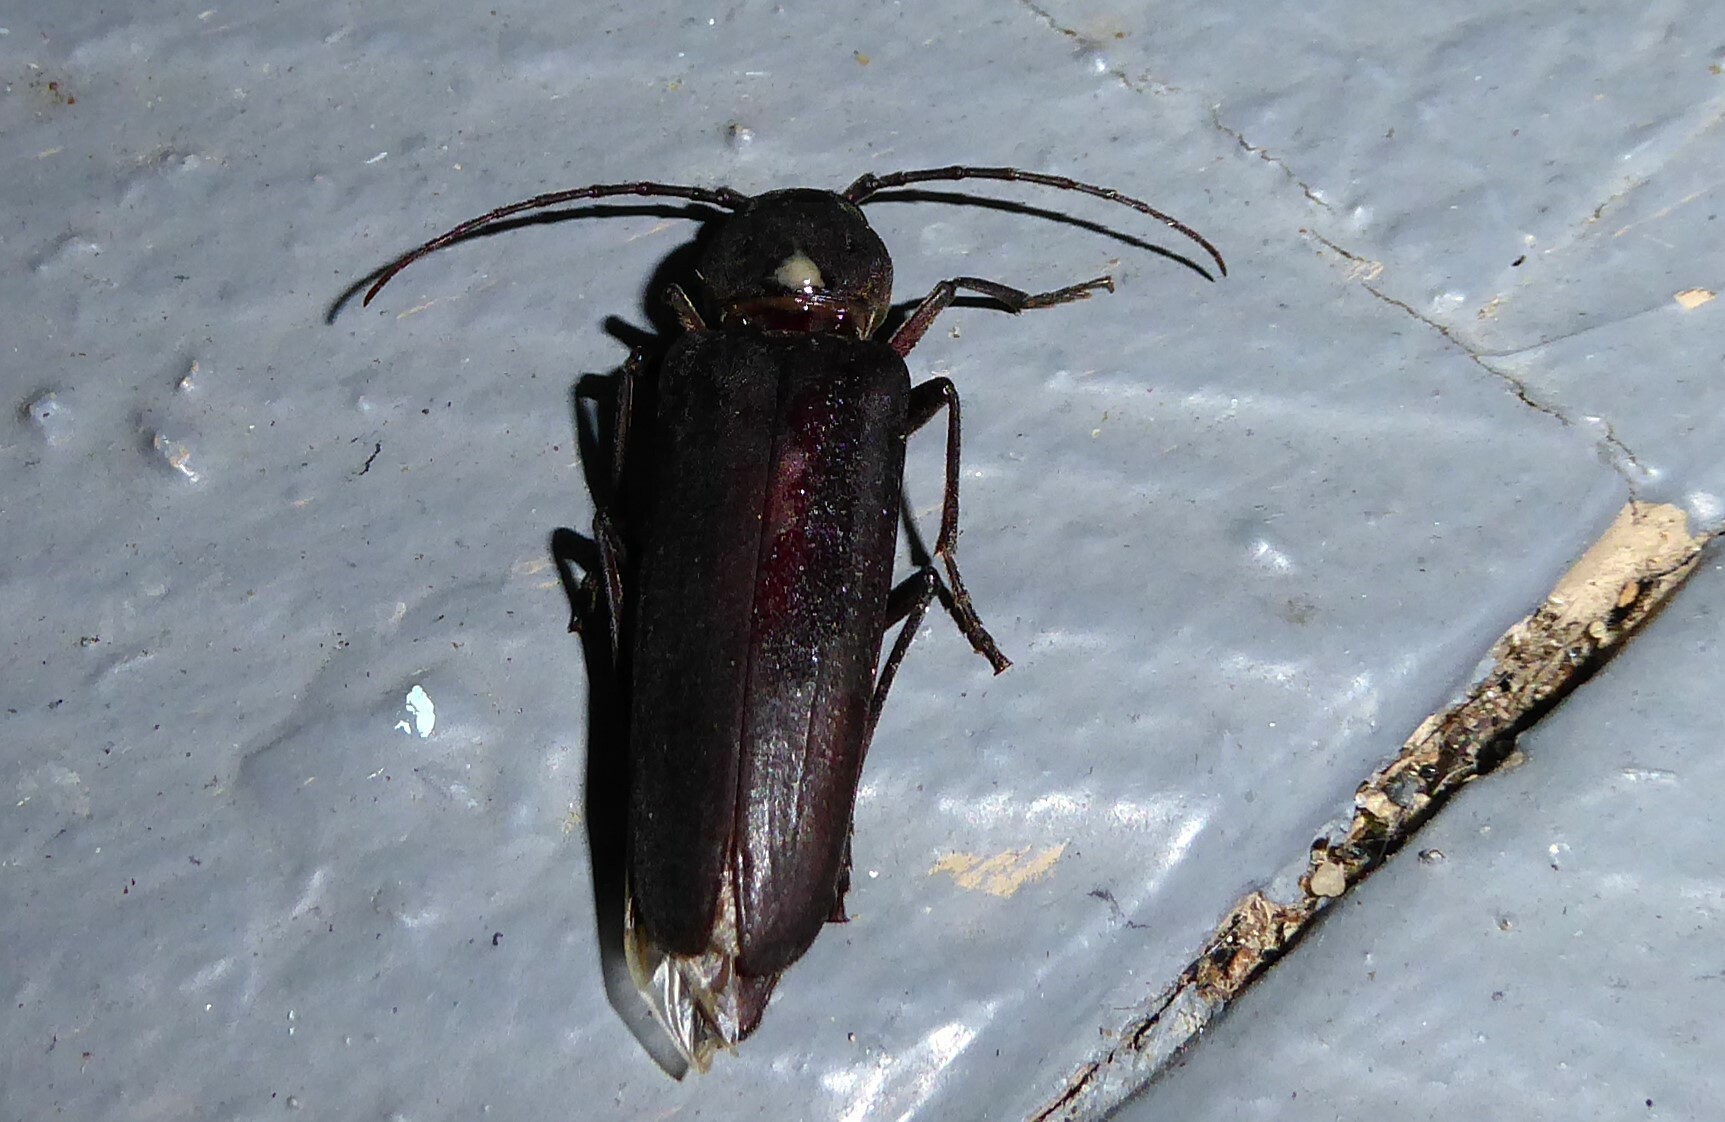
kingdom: Animalia
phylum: Arthropoda
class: Insecta
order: Coleoptera
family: Cerambycidae
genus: Arhopalus
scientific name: Arhopalus ferus
